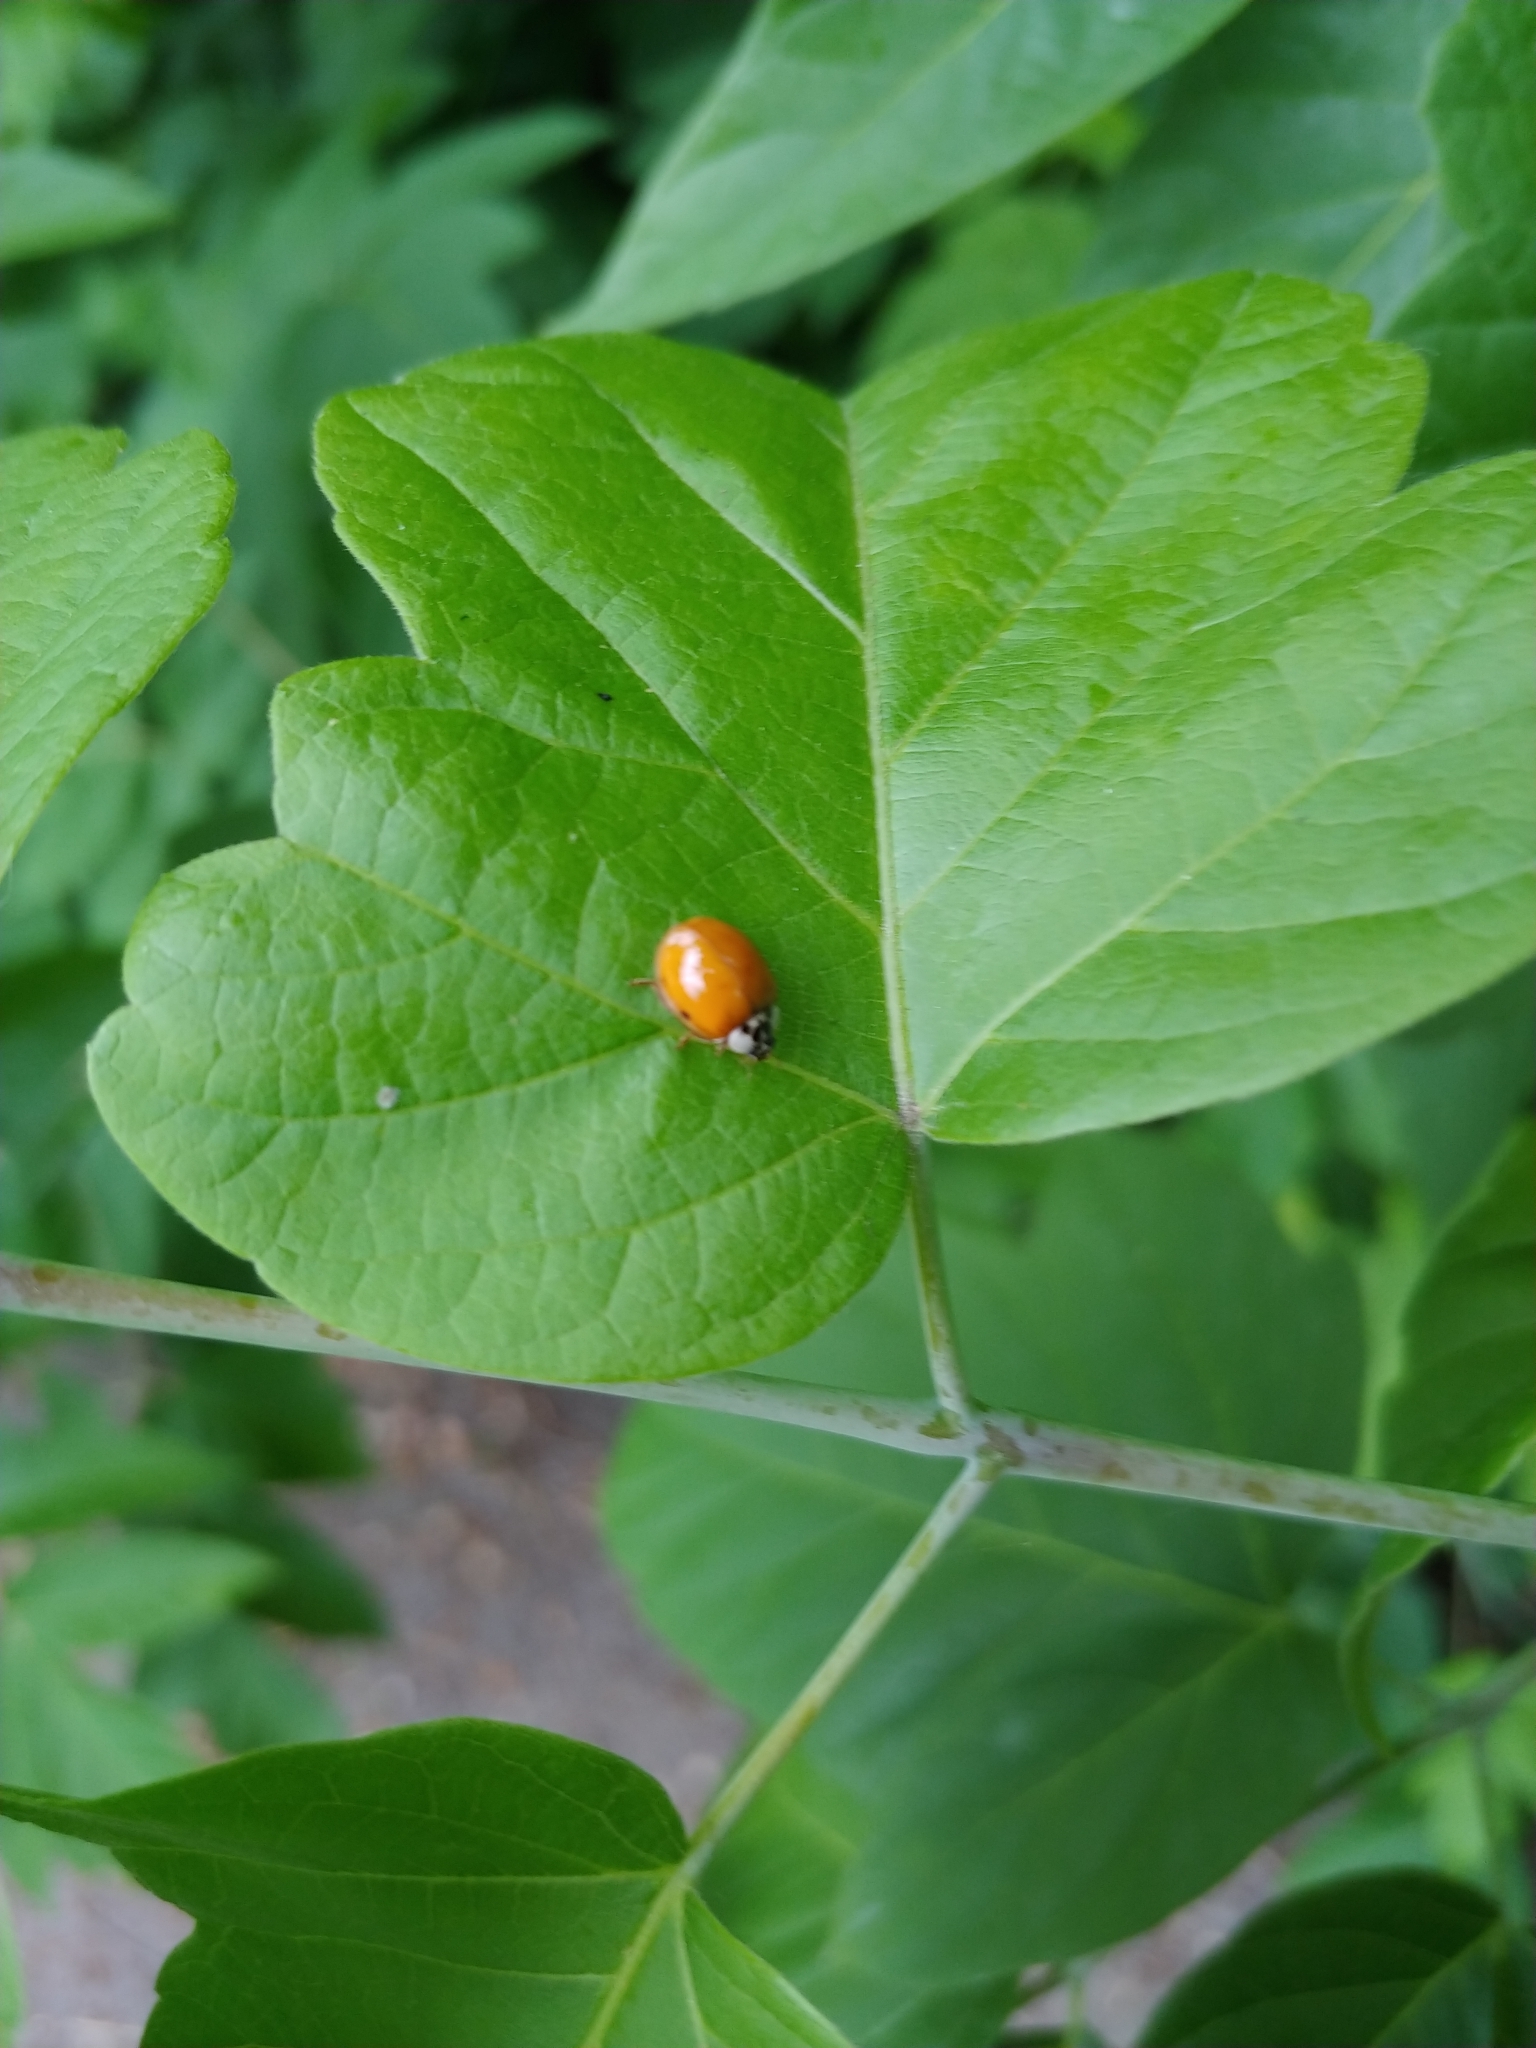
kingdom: Animalia
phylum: Arthropoda
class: Insecta
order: Coleoptera
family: Coccinellidae
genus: Harmonia
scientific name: Harmonia axyridis
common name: Harlequin ladybird
